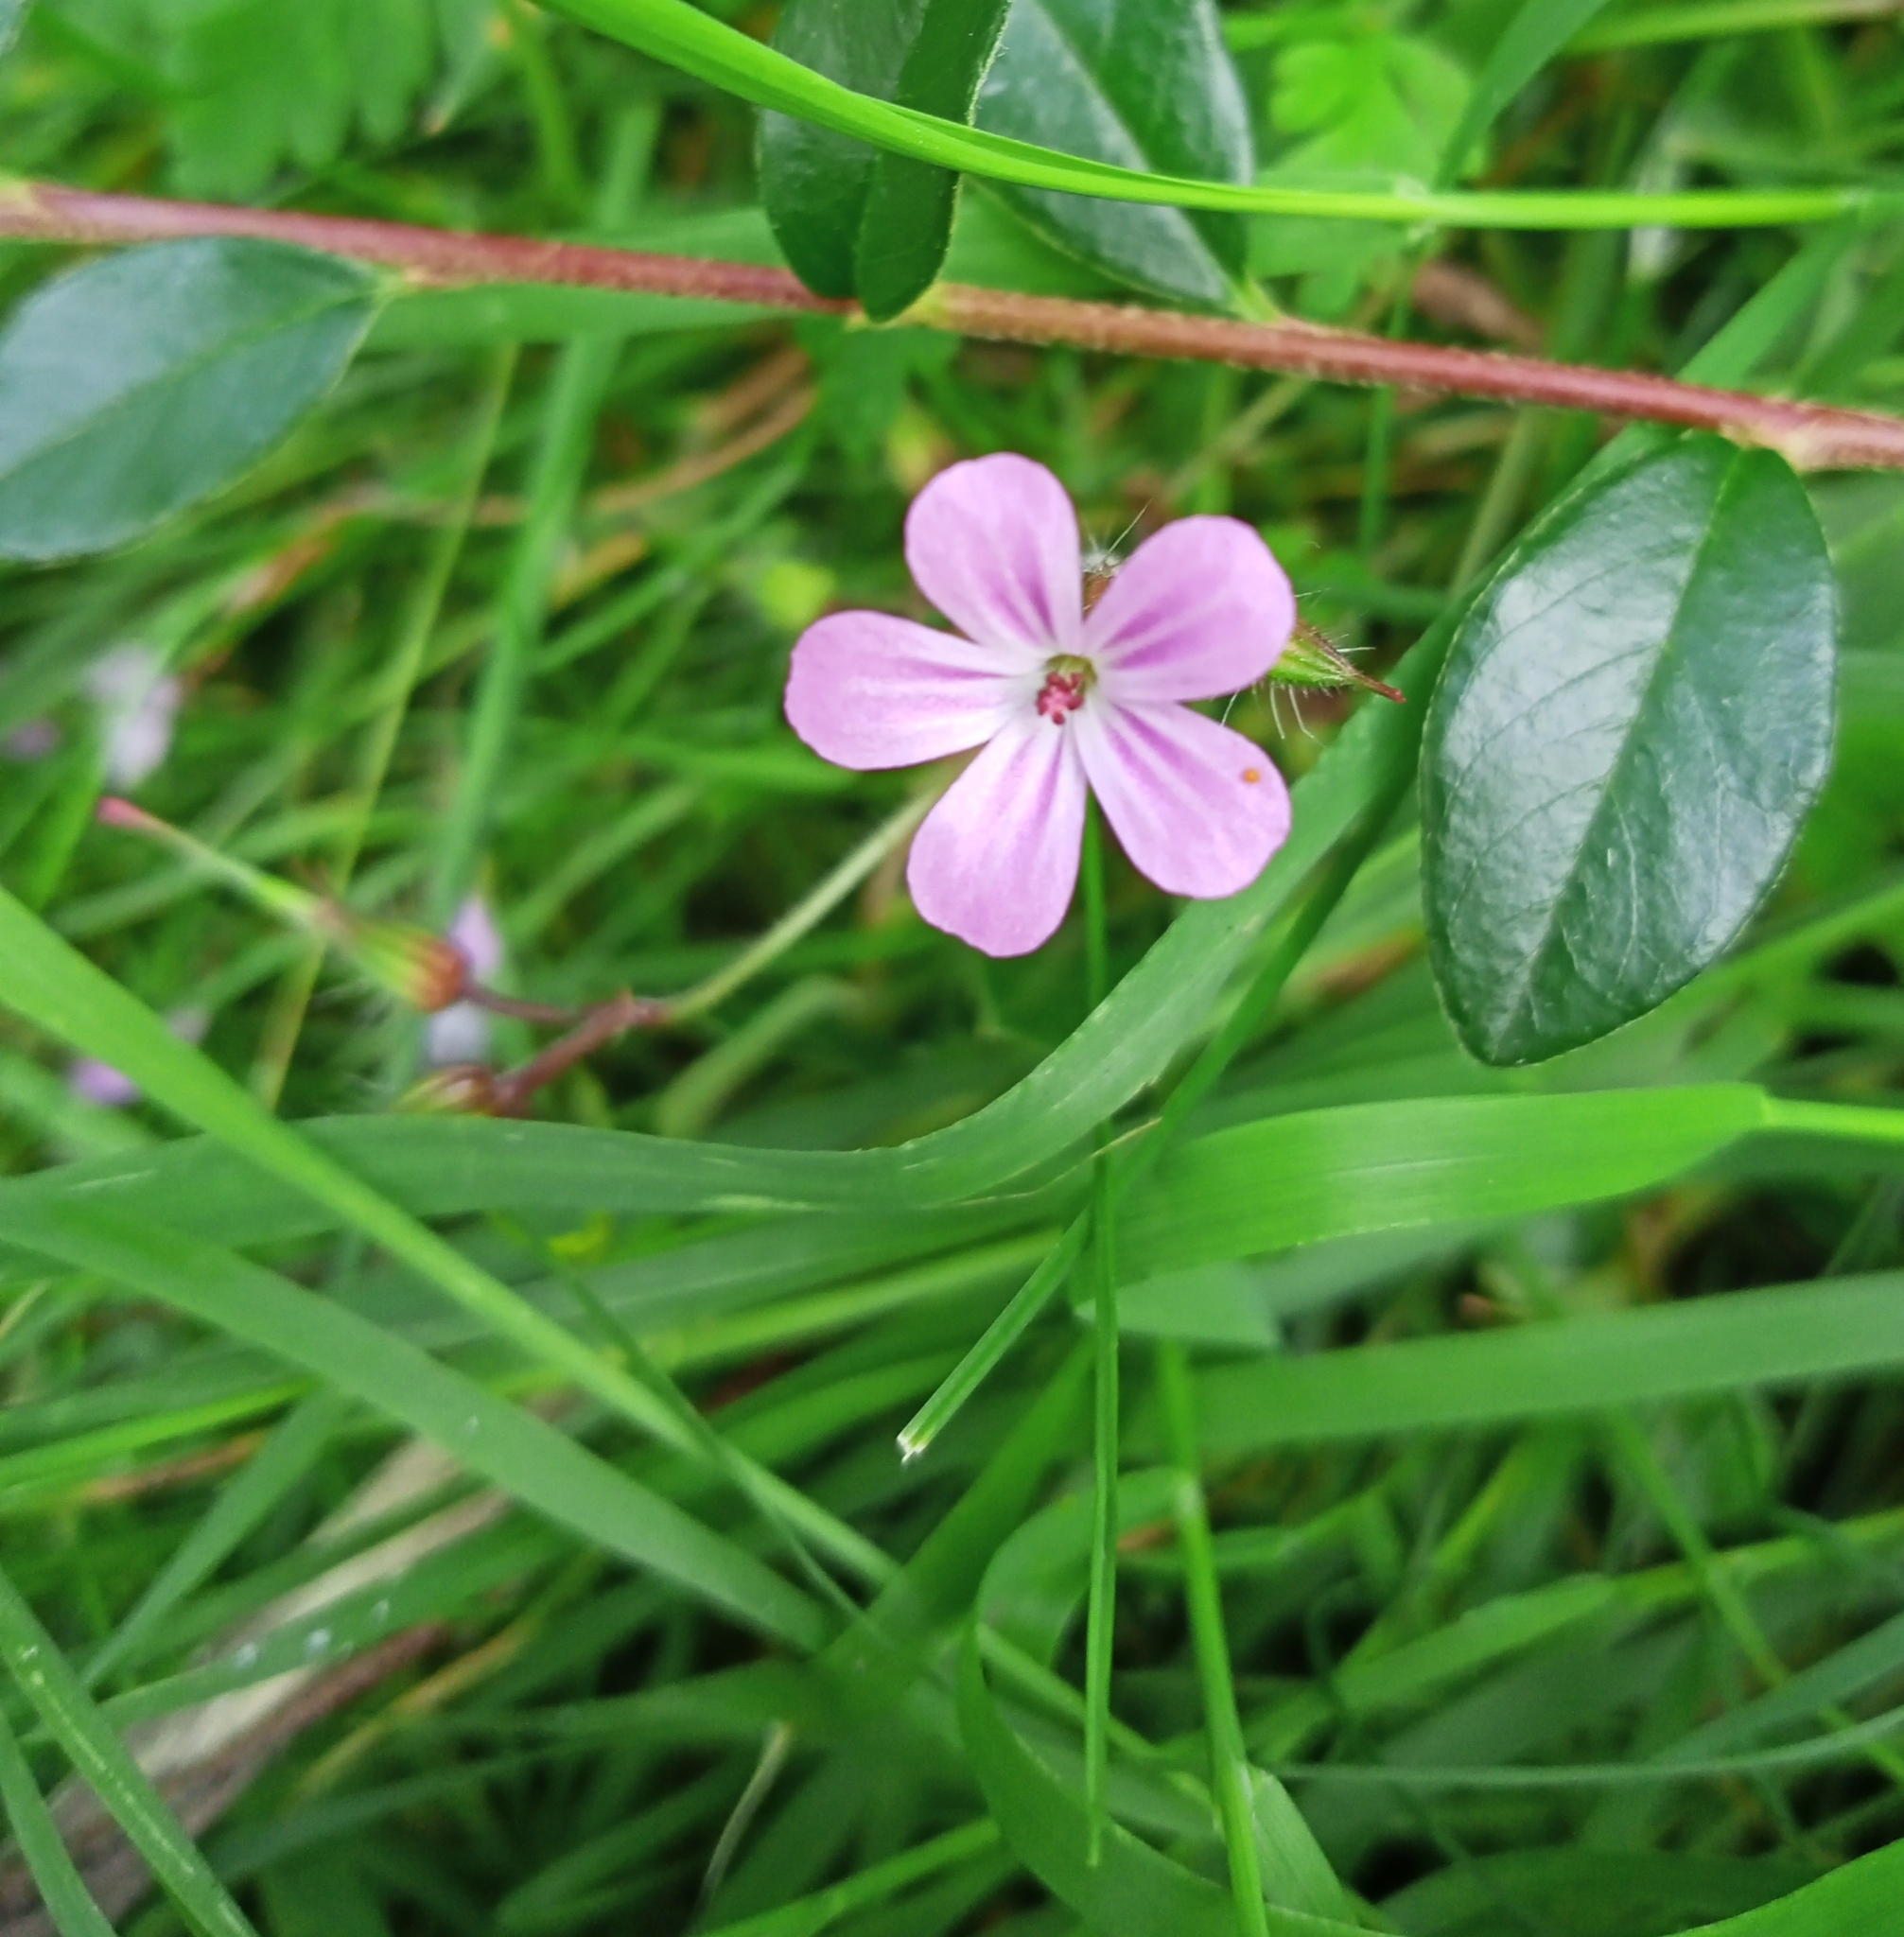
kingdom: Plantae
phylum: Tracheophyta
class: Magnoliopsida
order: Geraniales
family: Geraniaceae
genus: Geranium
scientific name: Geranium robertianum
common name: Herb-robert
